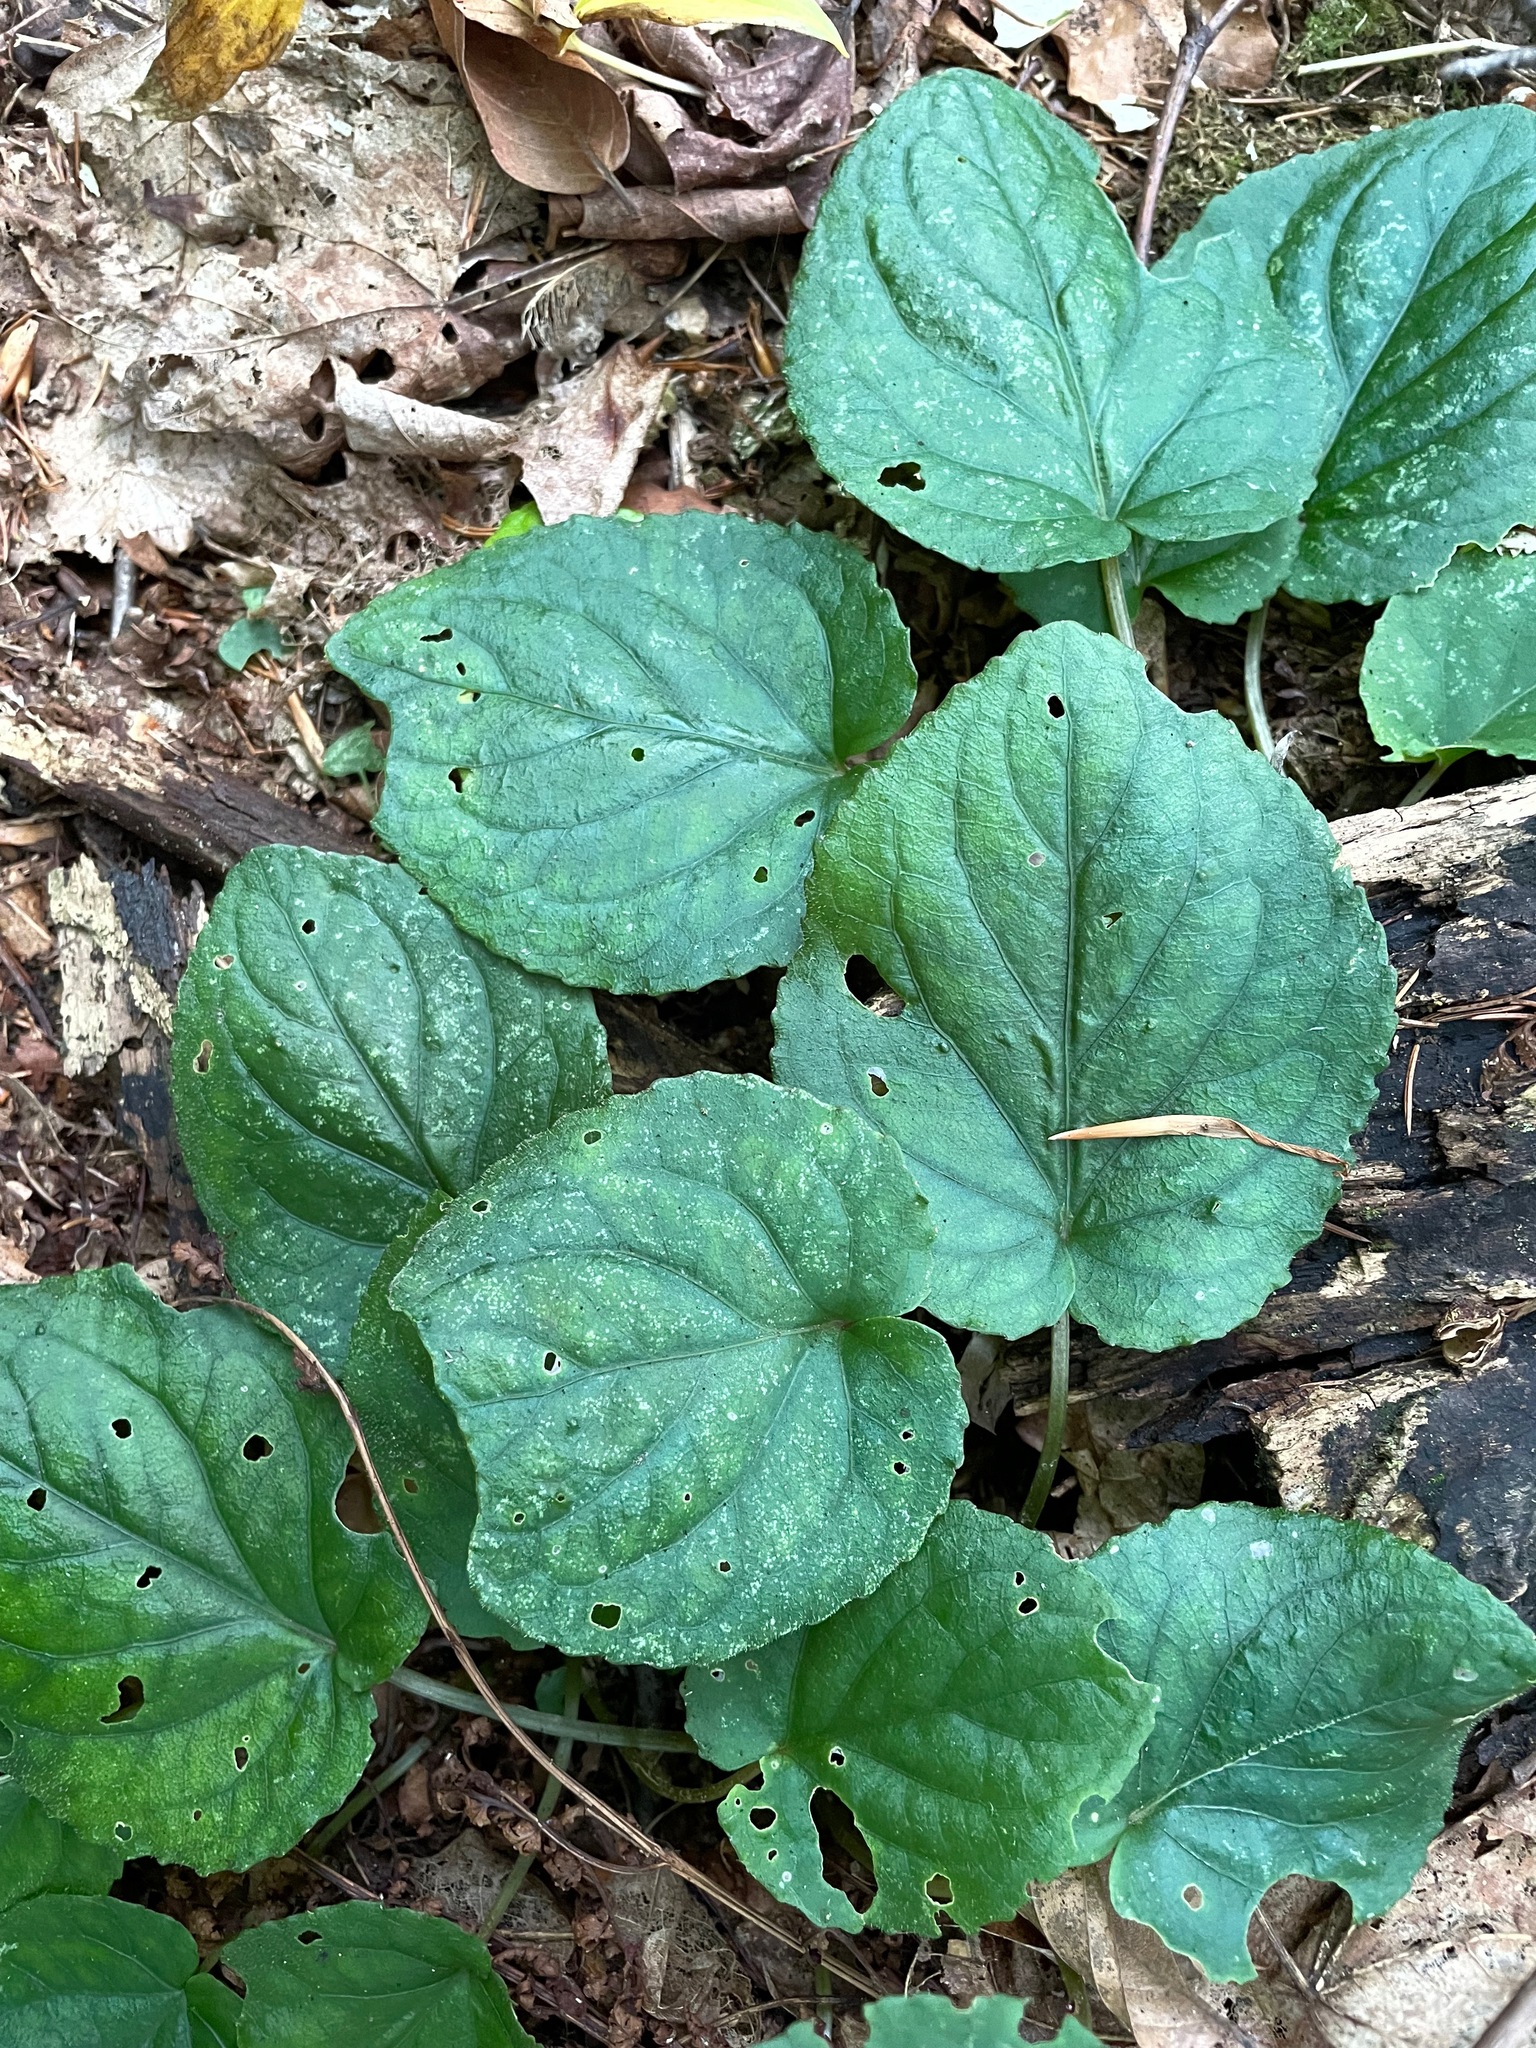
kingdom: Plantae
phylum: Tracheophyta
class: Magnoliopsida
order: Malpighiales
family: Violaceae
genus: Viola
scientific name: Viola rotundifolia
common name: Early yellow violet
